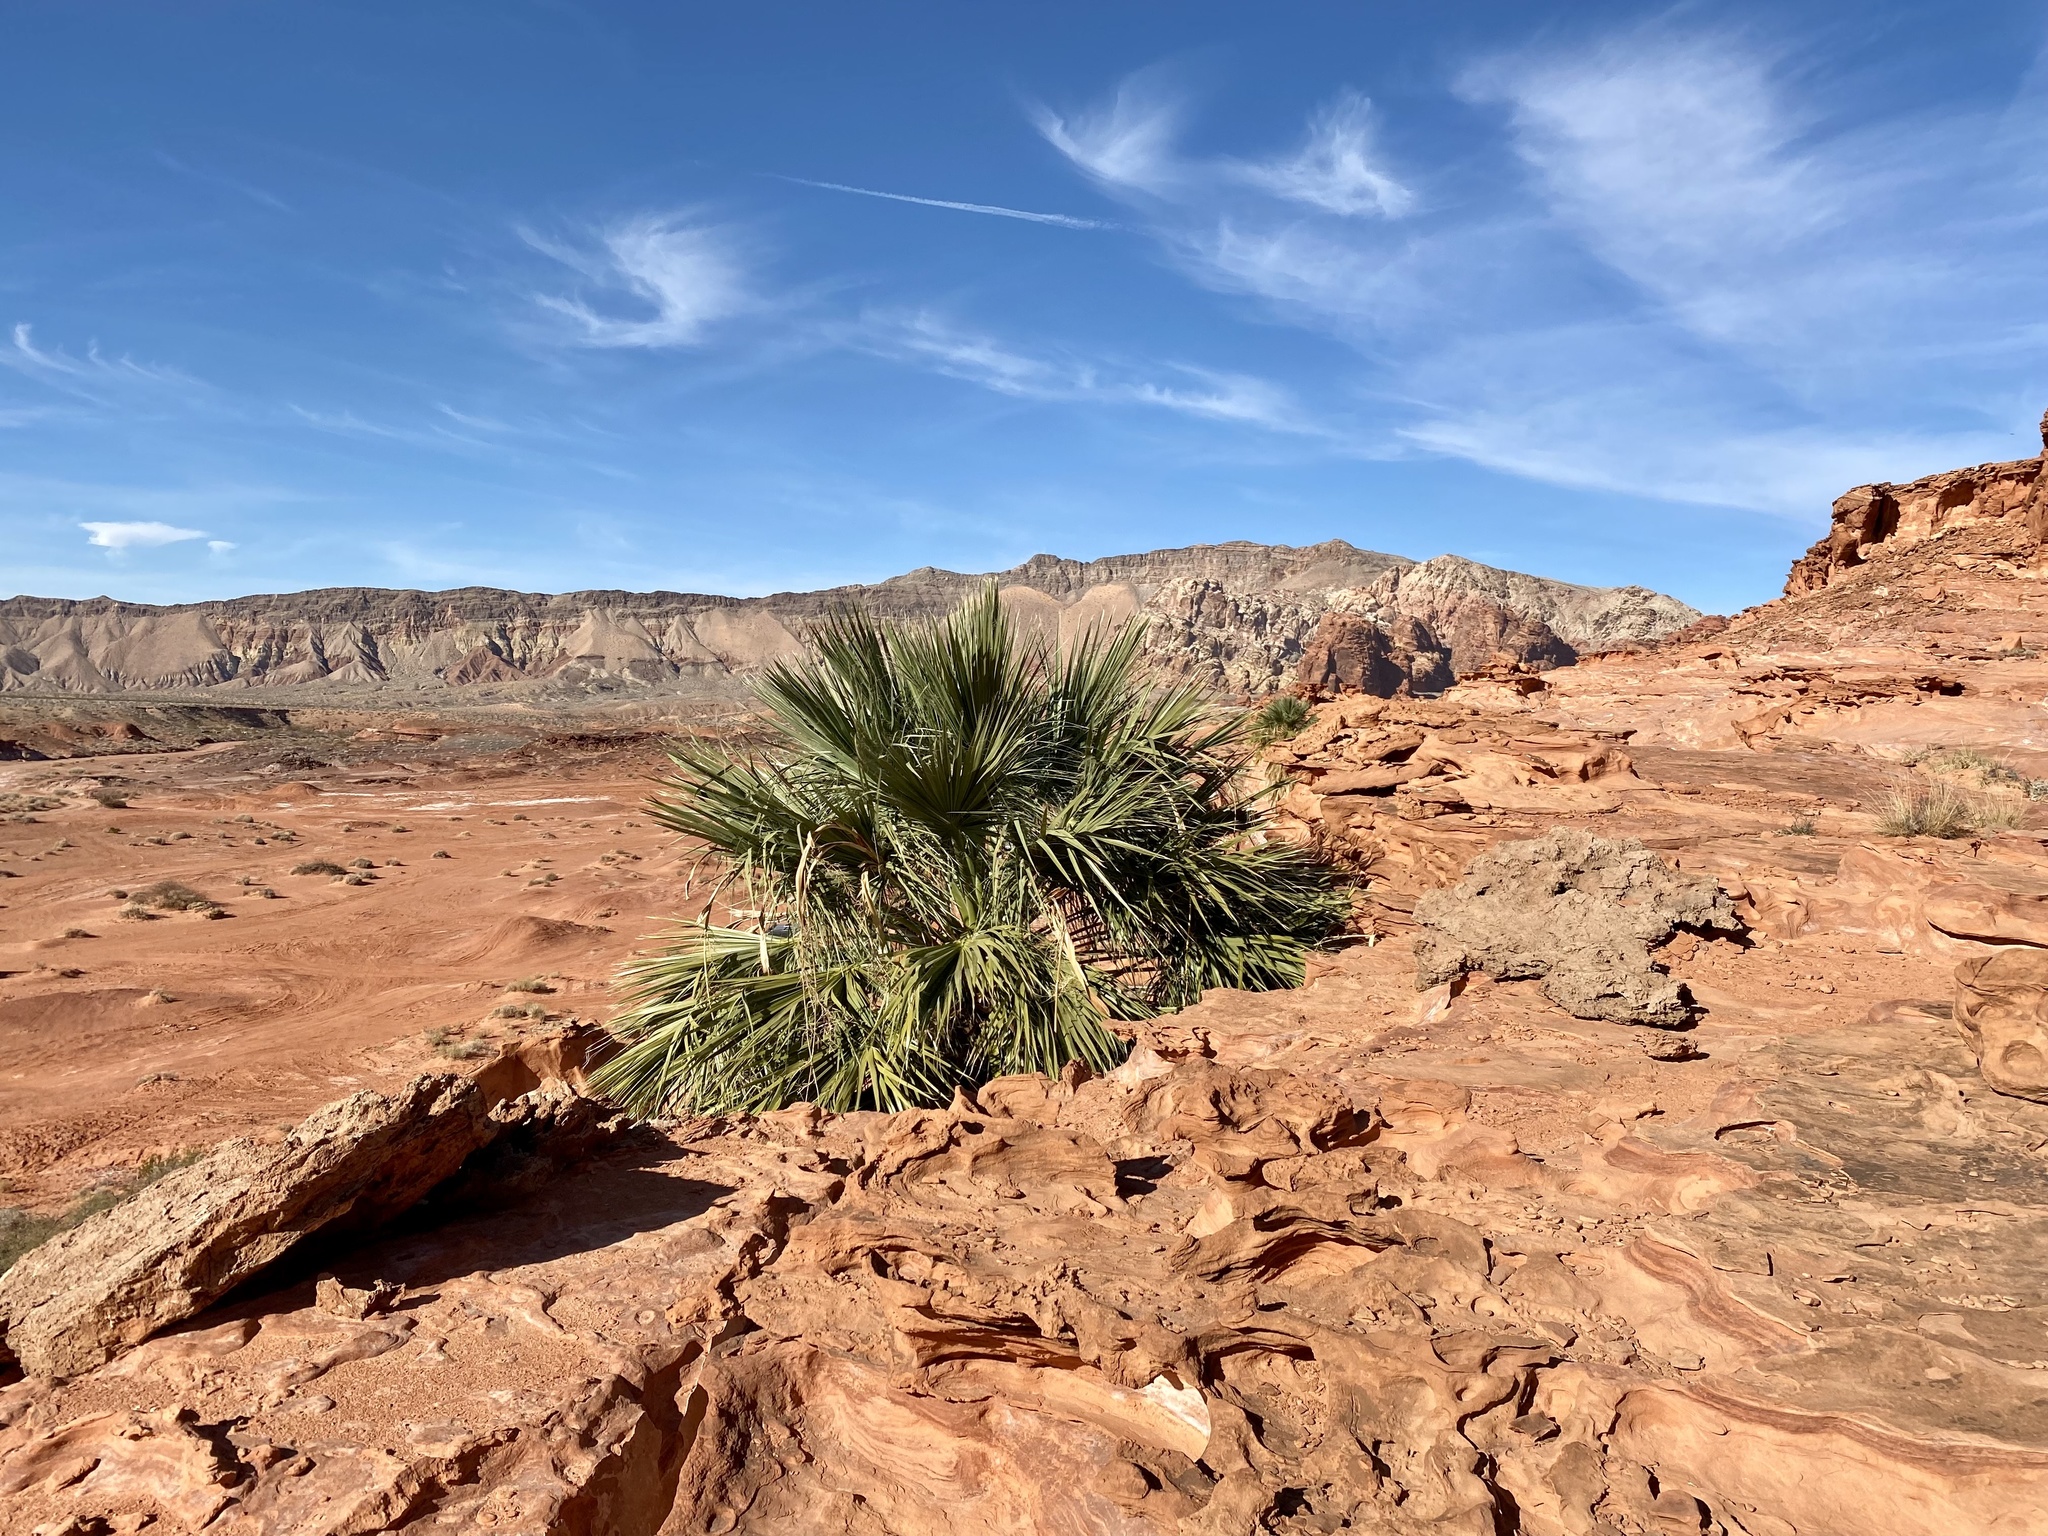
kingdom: Plantae
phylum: Tracheophyta
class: Liliopsida
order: Arecales
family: Arecaceae
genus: Washingtonia
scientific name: Washingtonia filifera
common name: California fan palm
